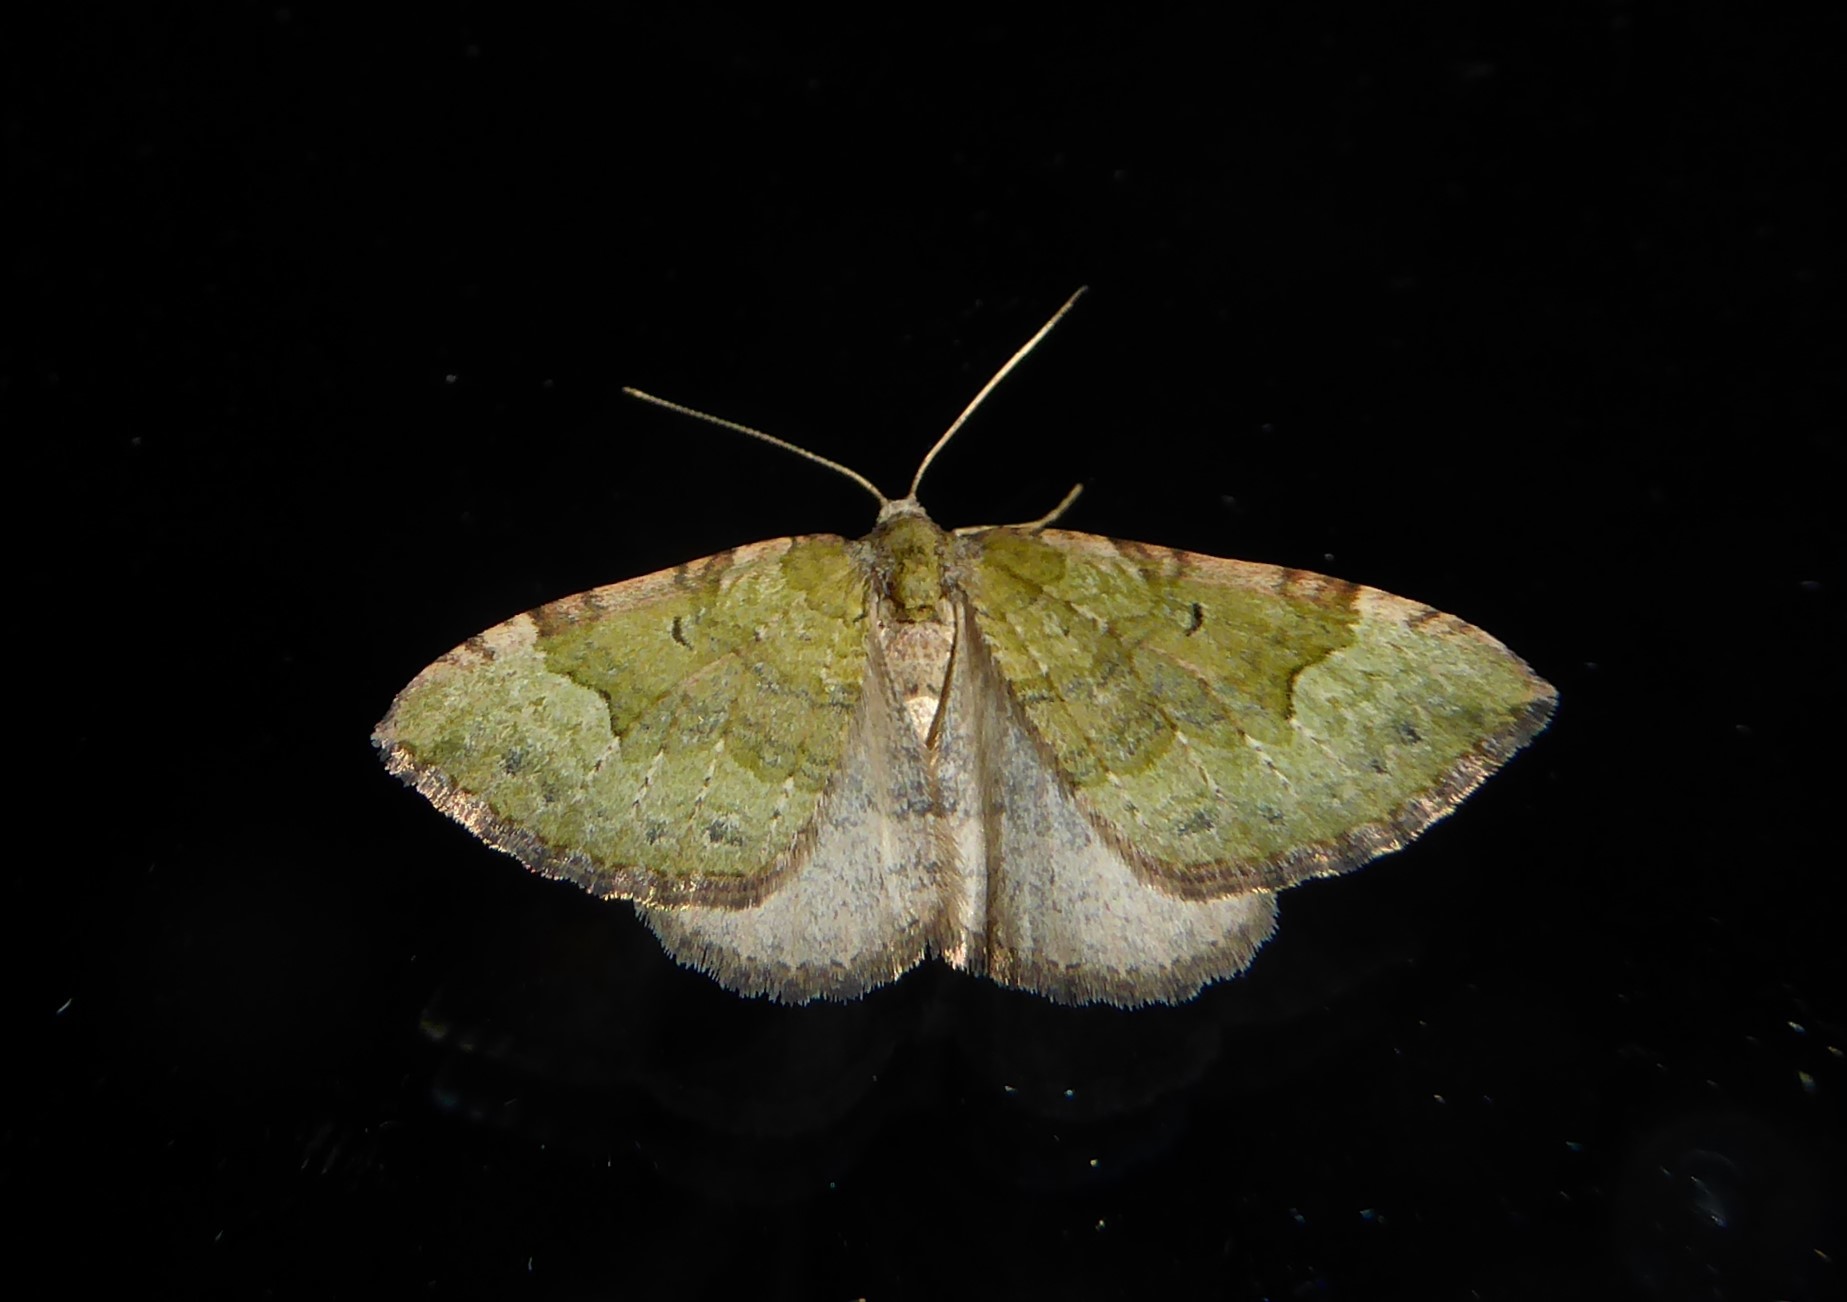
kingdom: Animalia
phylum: Arthropoda
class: Insecta
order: Lepidoptera
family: Geometridae
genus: Epyaxa
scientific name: Epyaxa rosearia
